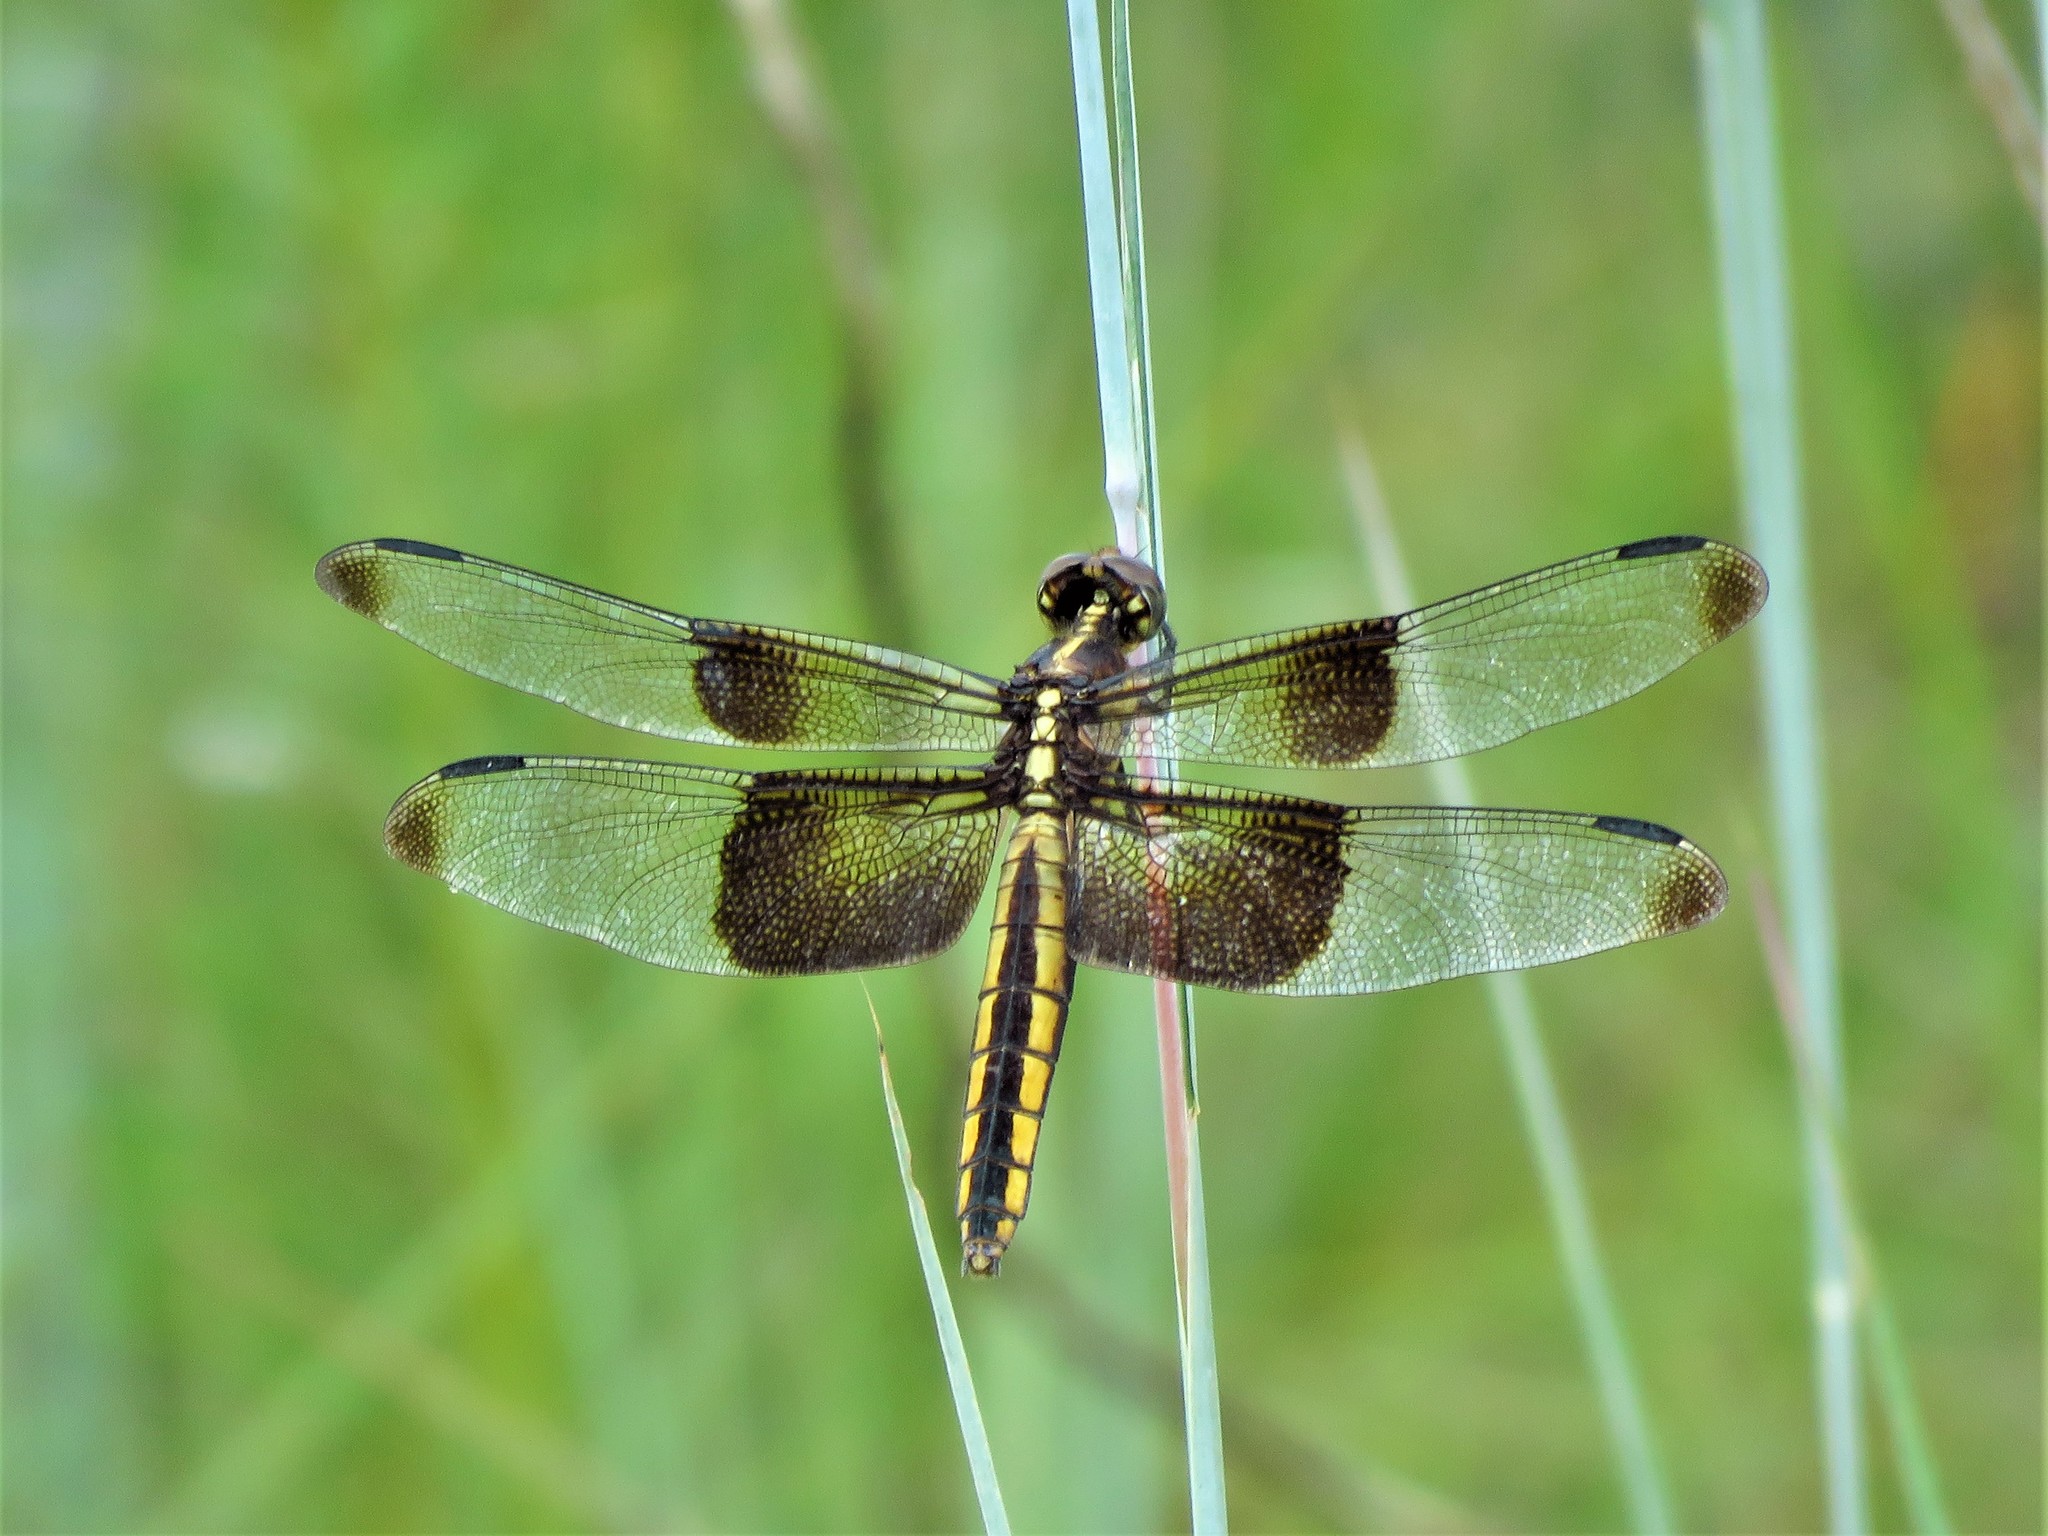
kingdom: Animalia
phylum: Arthropoda
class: Insecta
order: Odonata
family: Libellulidae
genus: Libellula
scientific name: Libellula luctuosa
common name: Widow skimmer
